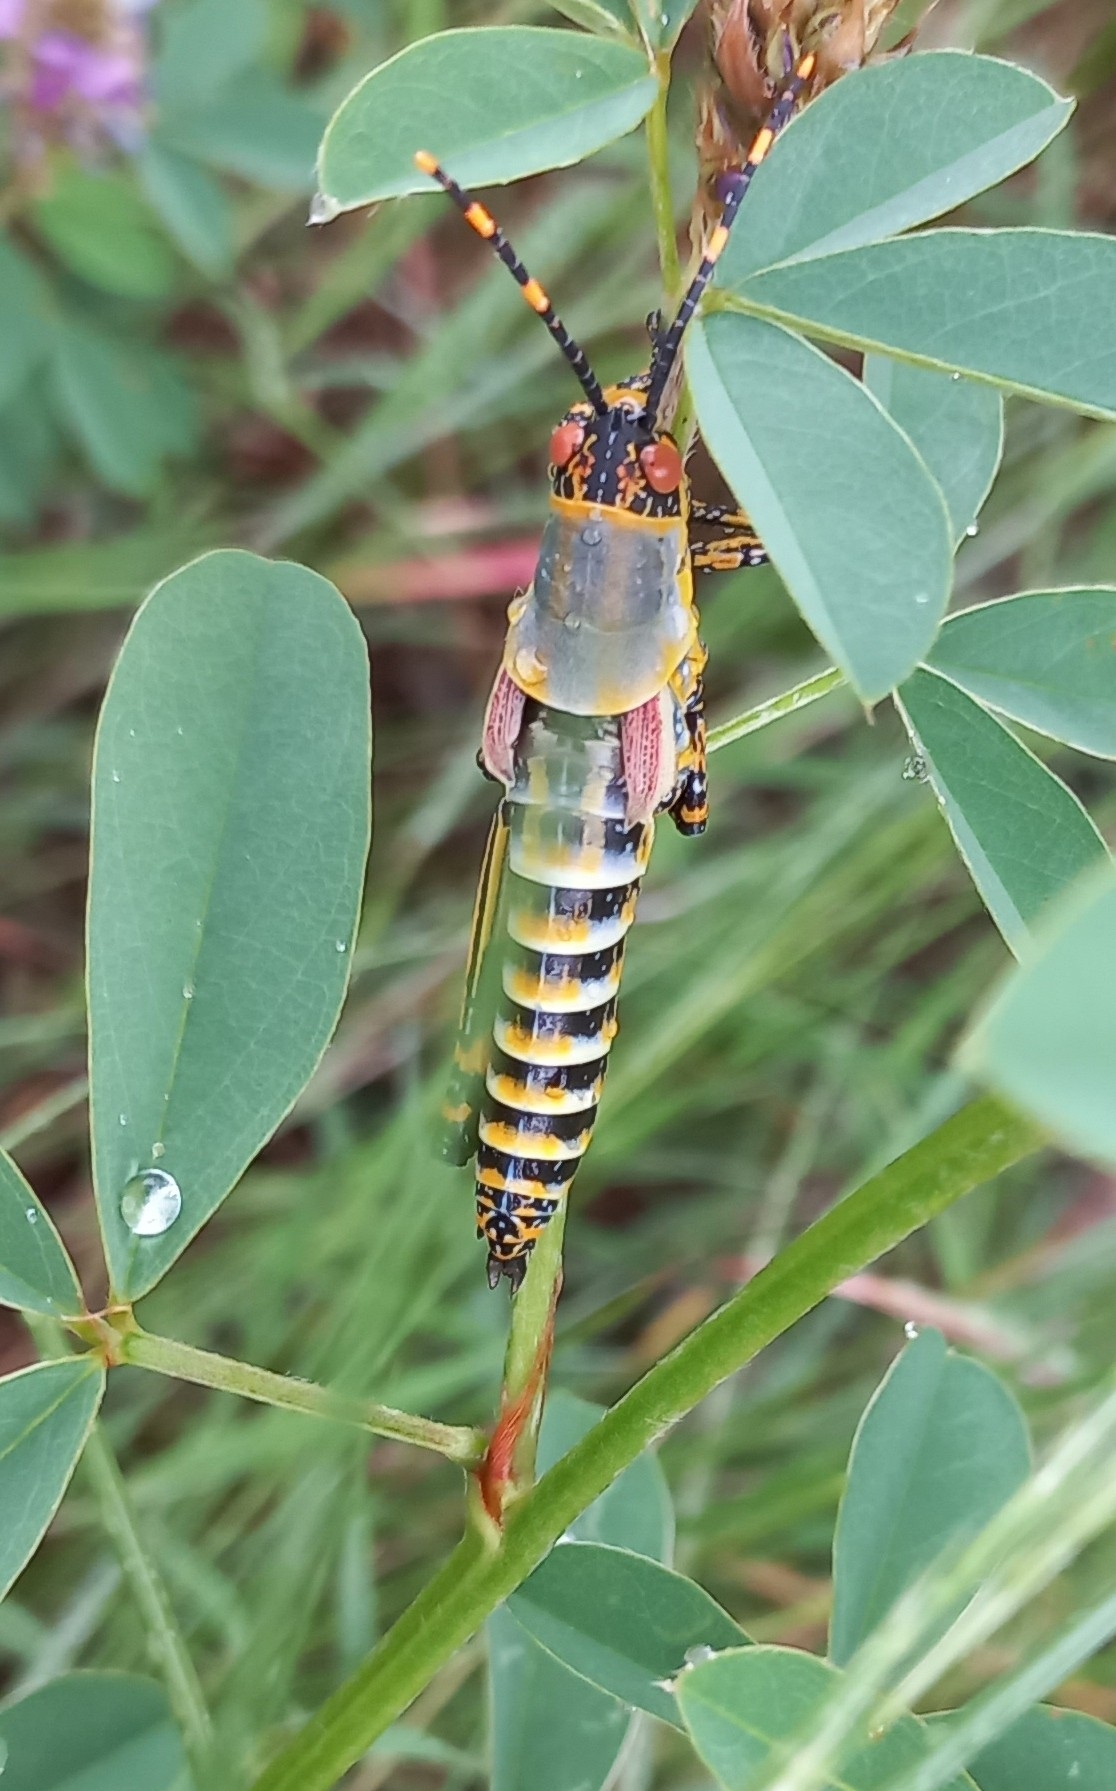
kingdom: Animalia
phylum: Arthropoda
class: Insecta
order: Orthoptera
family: Pyrgomorphidae
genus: Zonocerus
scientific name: Zonocerus elegans
